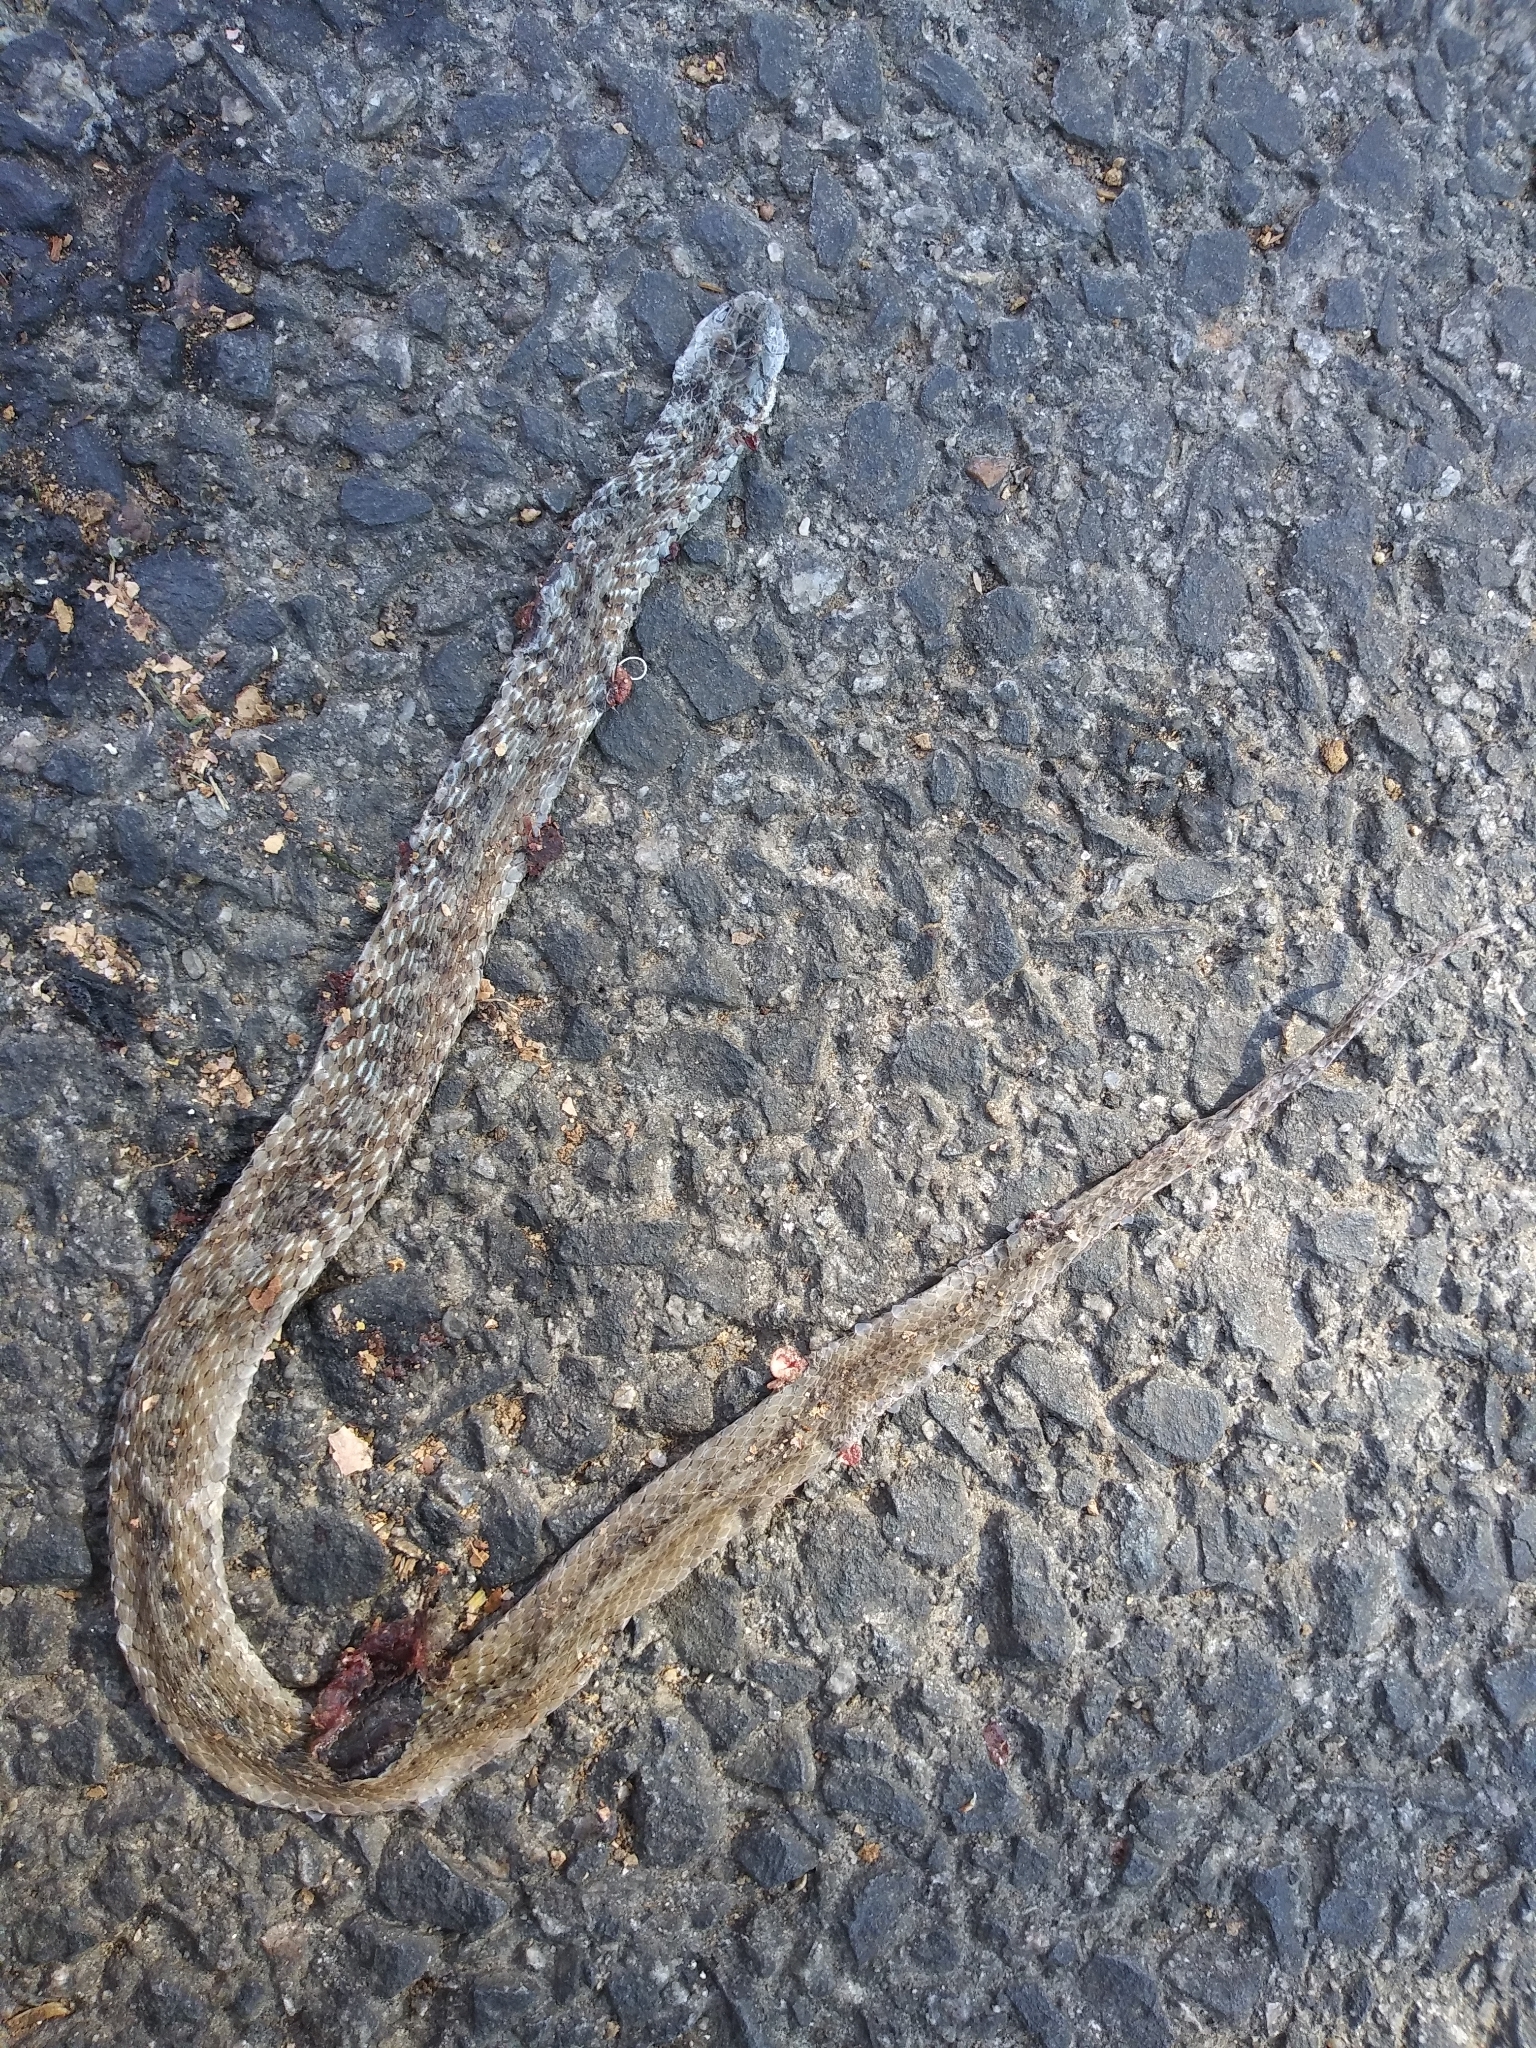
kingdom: Animalia
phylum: Chordata
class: Squamata
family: Colubridae
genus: Storeria
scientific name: Storeria dekayi
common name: (dekay’s) brown snake
